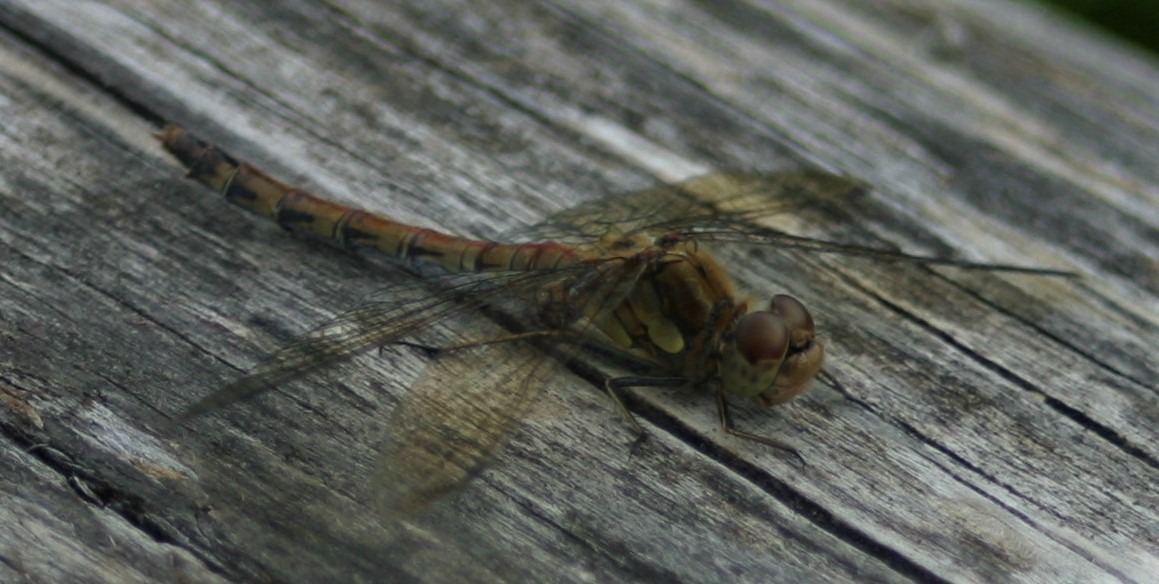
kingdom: Animalia
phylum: Arthropoda
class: Insecta
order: Odonata
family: Libellulidae
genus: Sympetrum
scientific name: Sympetrum striolatum
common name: Common darter
